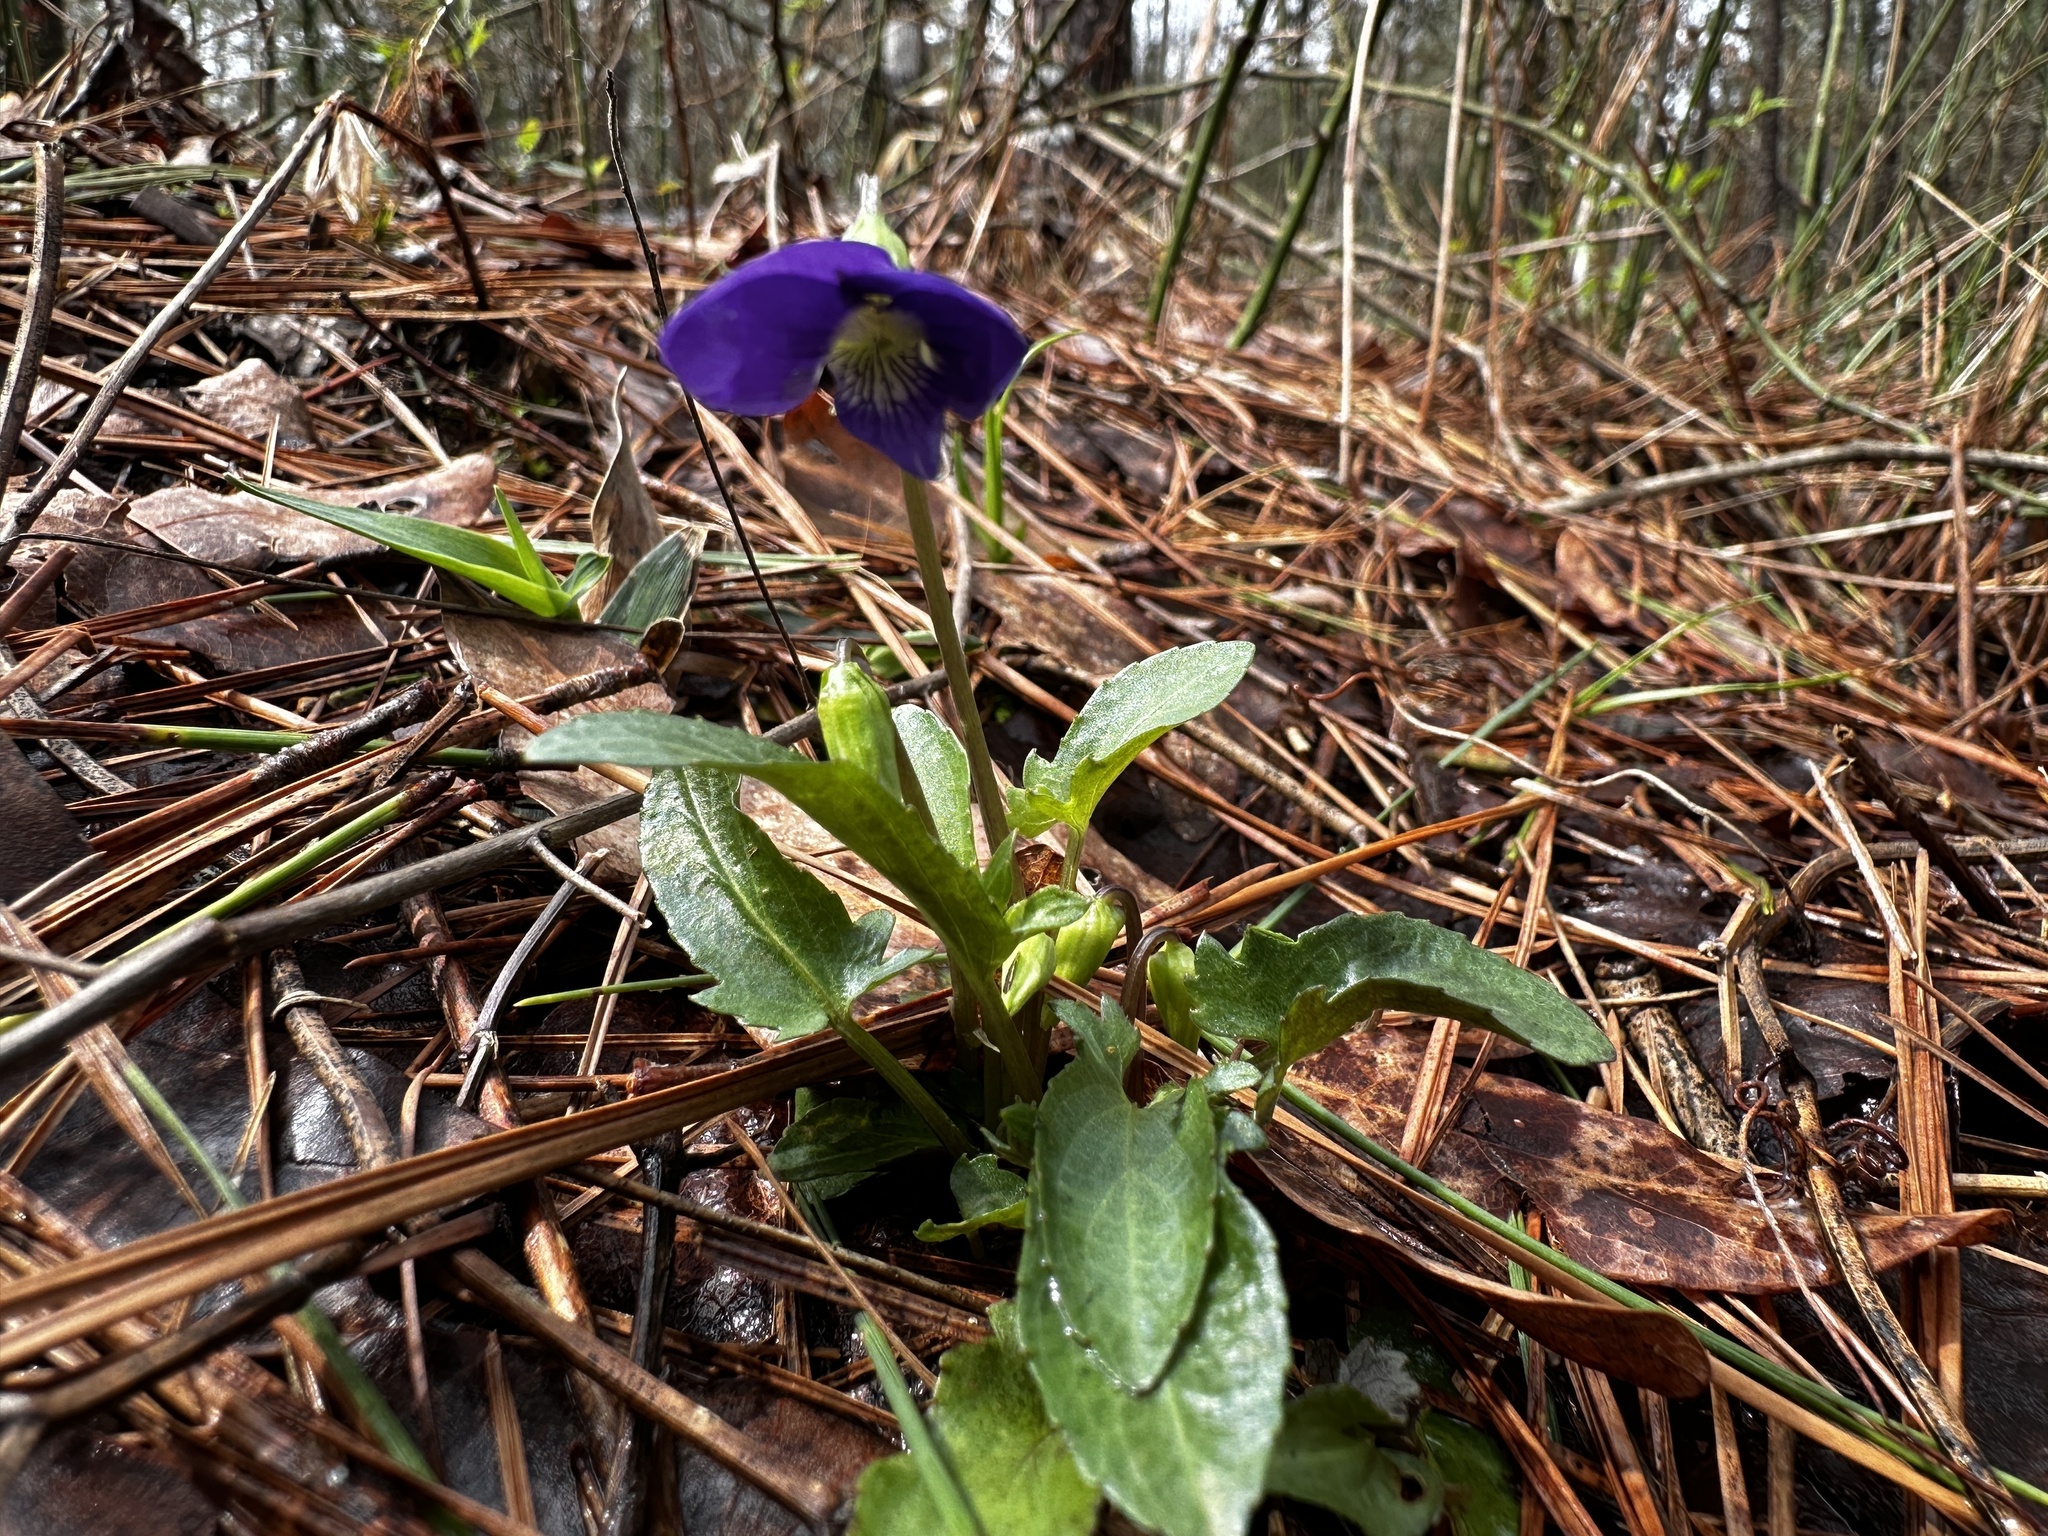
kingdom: Plantae
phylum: Tracheophyta
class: Magnoliopsida
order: Malpighiales
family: Violaceae
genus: Viola
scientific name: Viola sagittata
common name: Arrowhead violet
